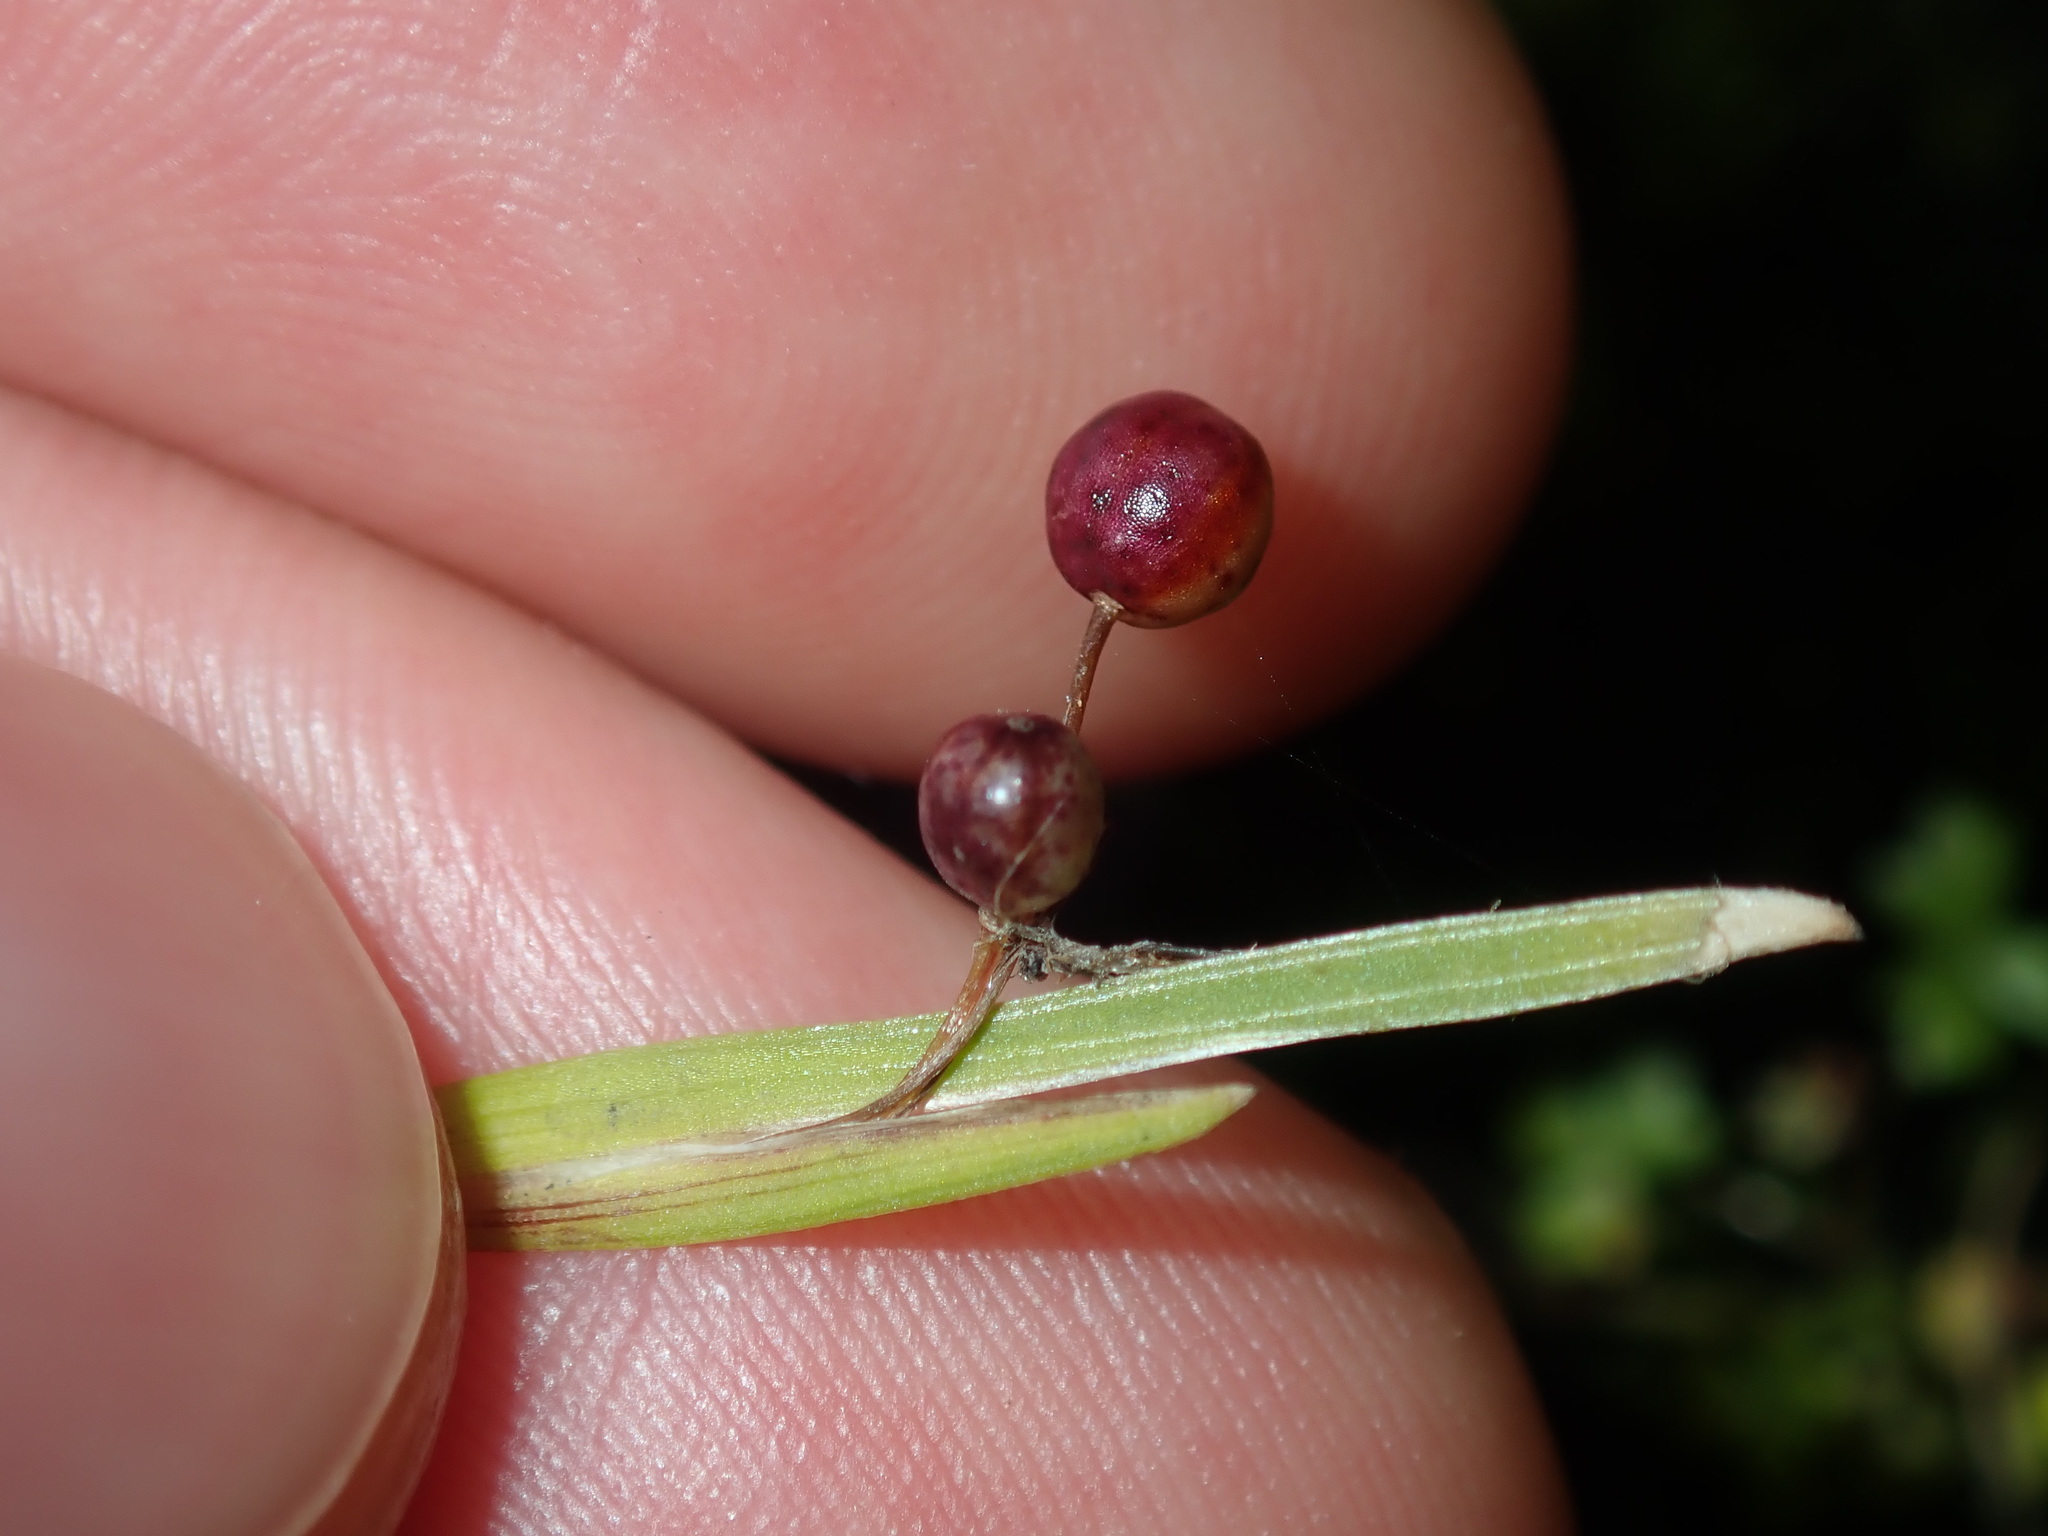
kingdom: Plantae
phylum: Tracheophyta
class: Liliopsida
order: Asparagales
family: Iridaceae
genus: Sisyrinchium
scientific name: Sisyrinchium micranthum
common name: Bermuda pigroot
